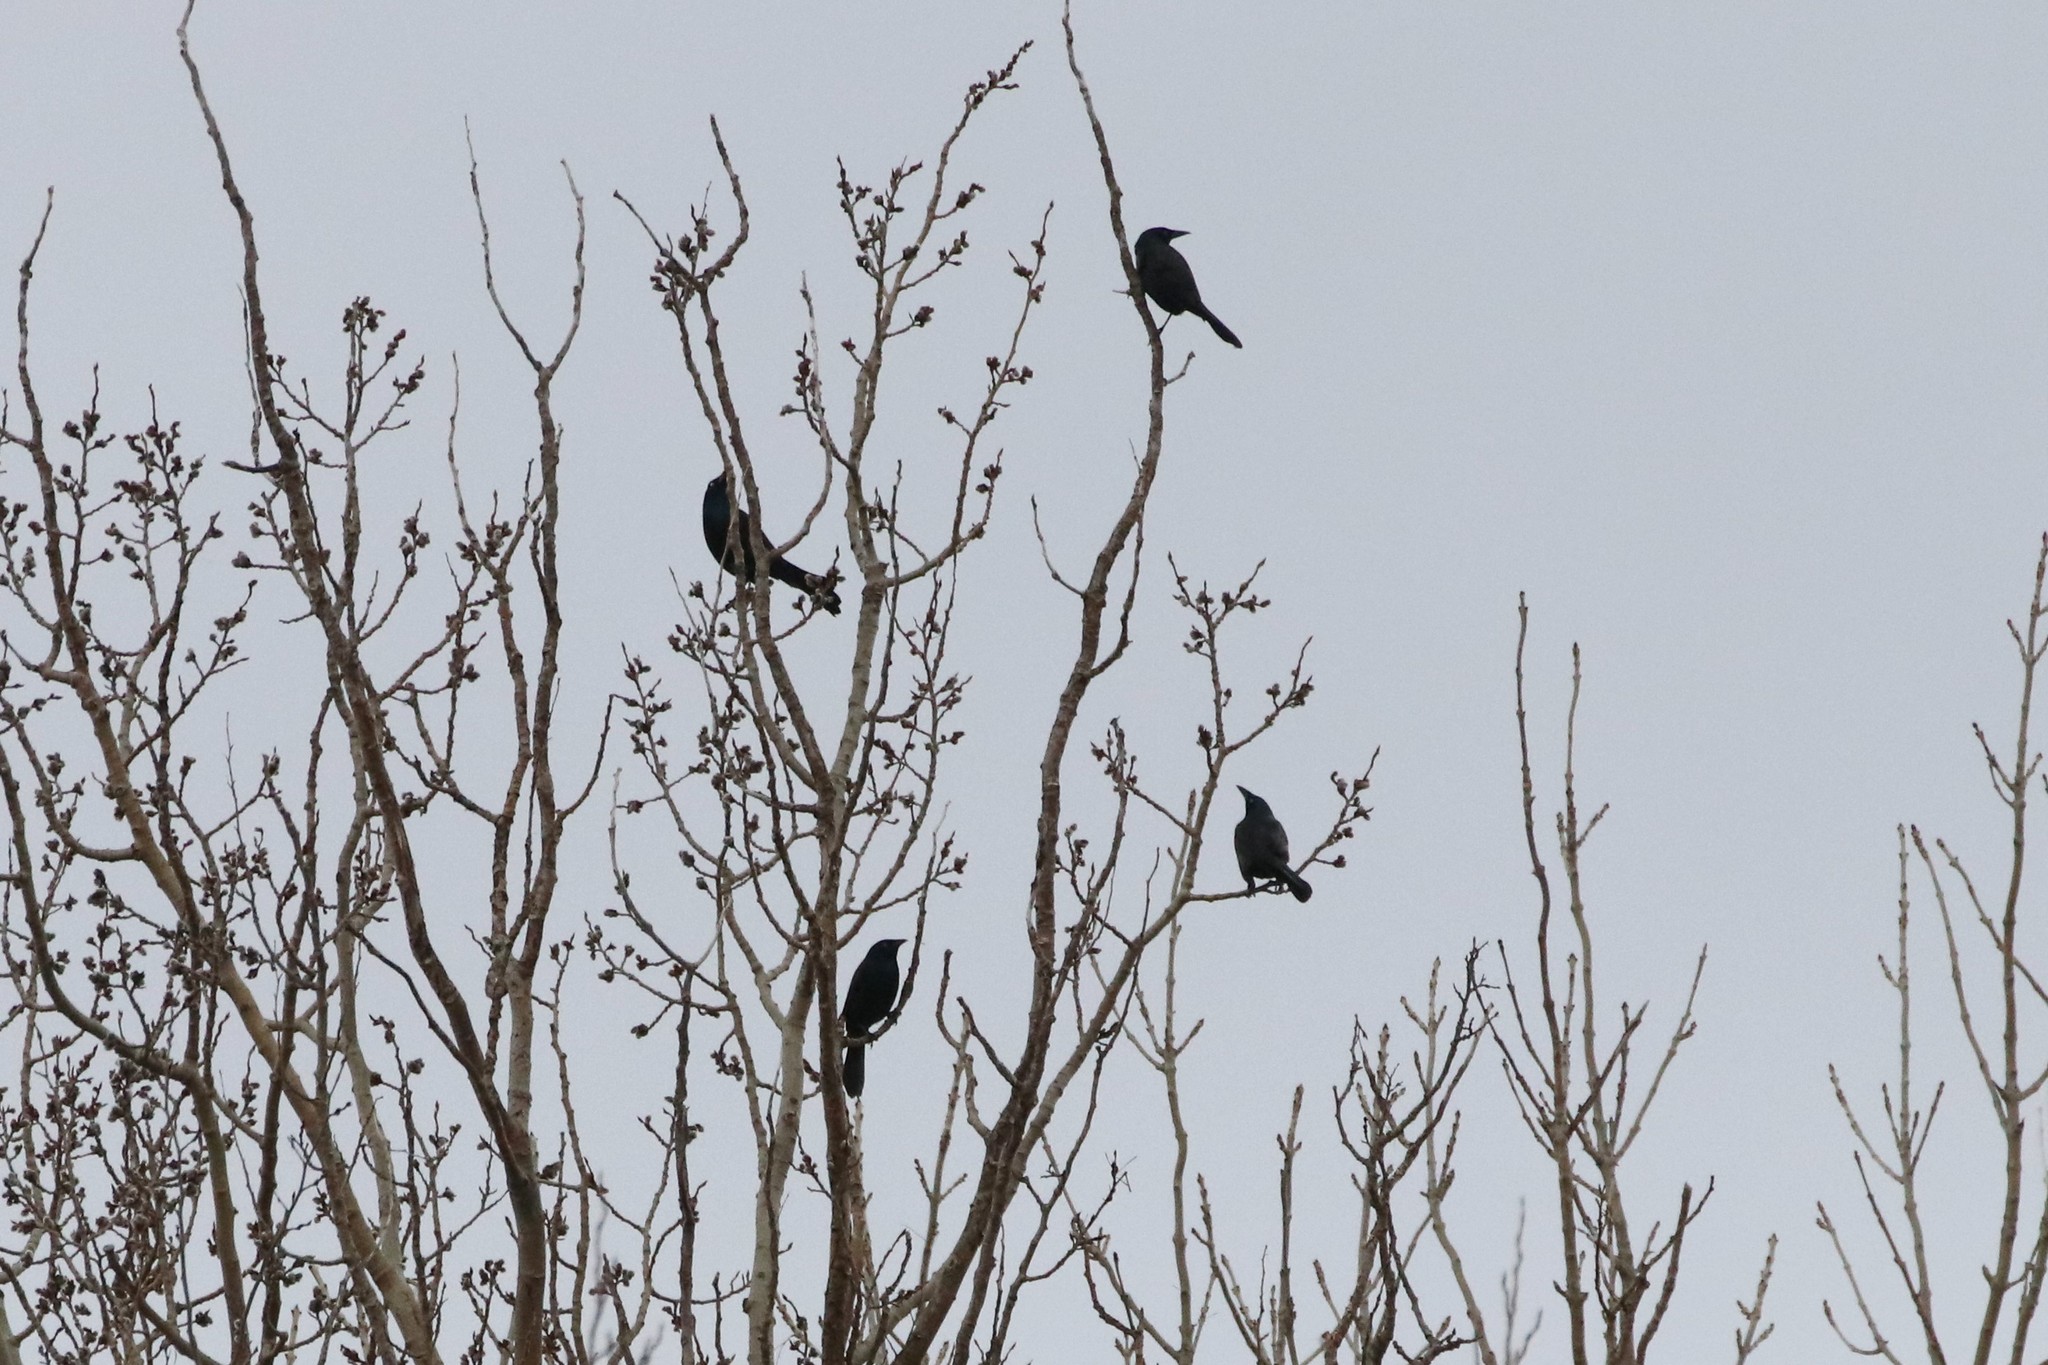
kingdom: Animalia
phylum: Chordata
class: Aves
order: Passeriformes
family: Icteridae
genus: Quiscalus
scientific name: Quiscalus quiscula
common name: Common grackle
